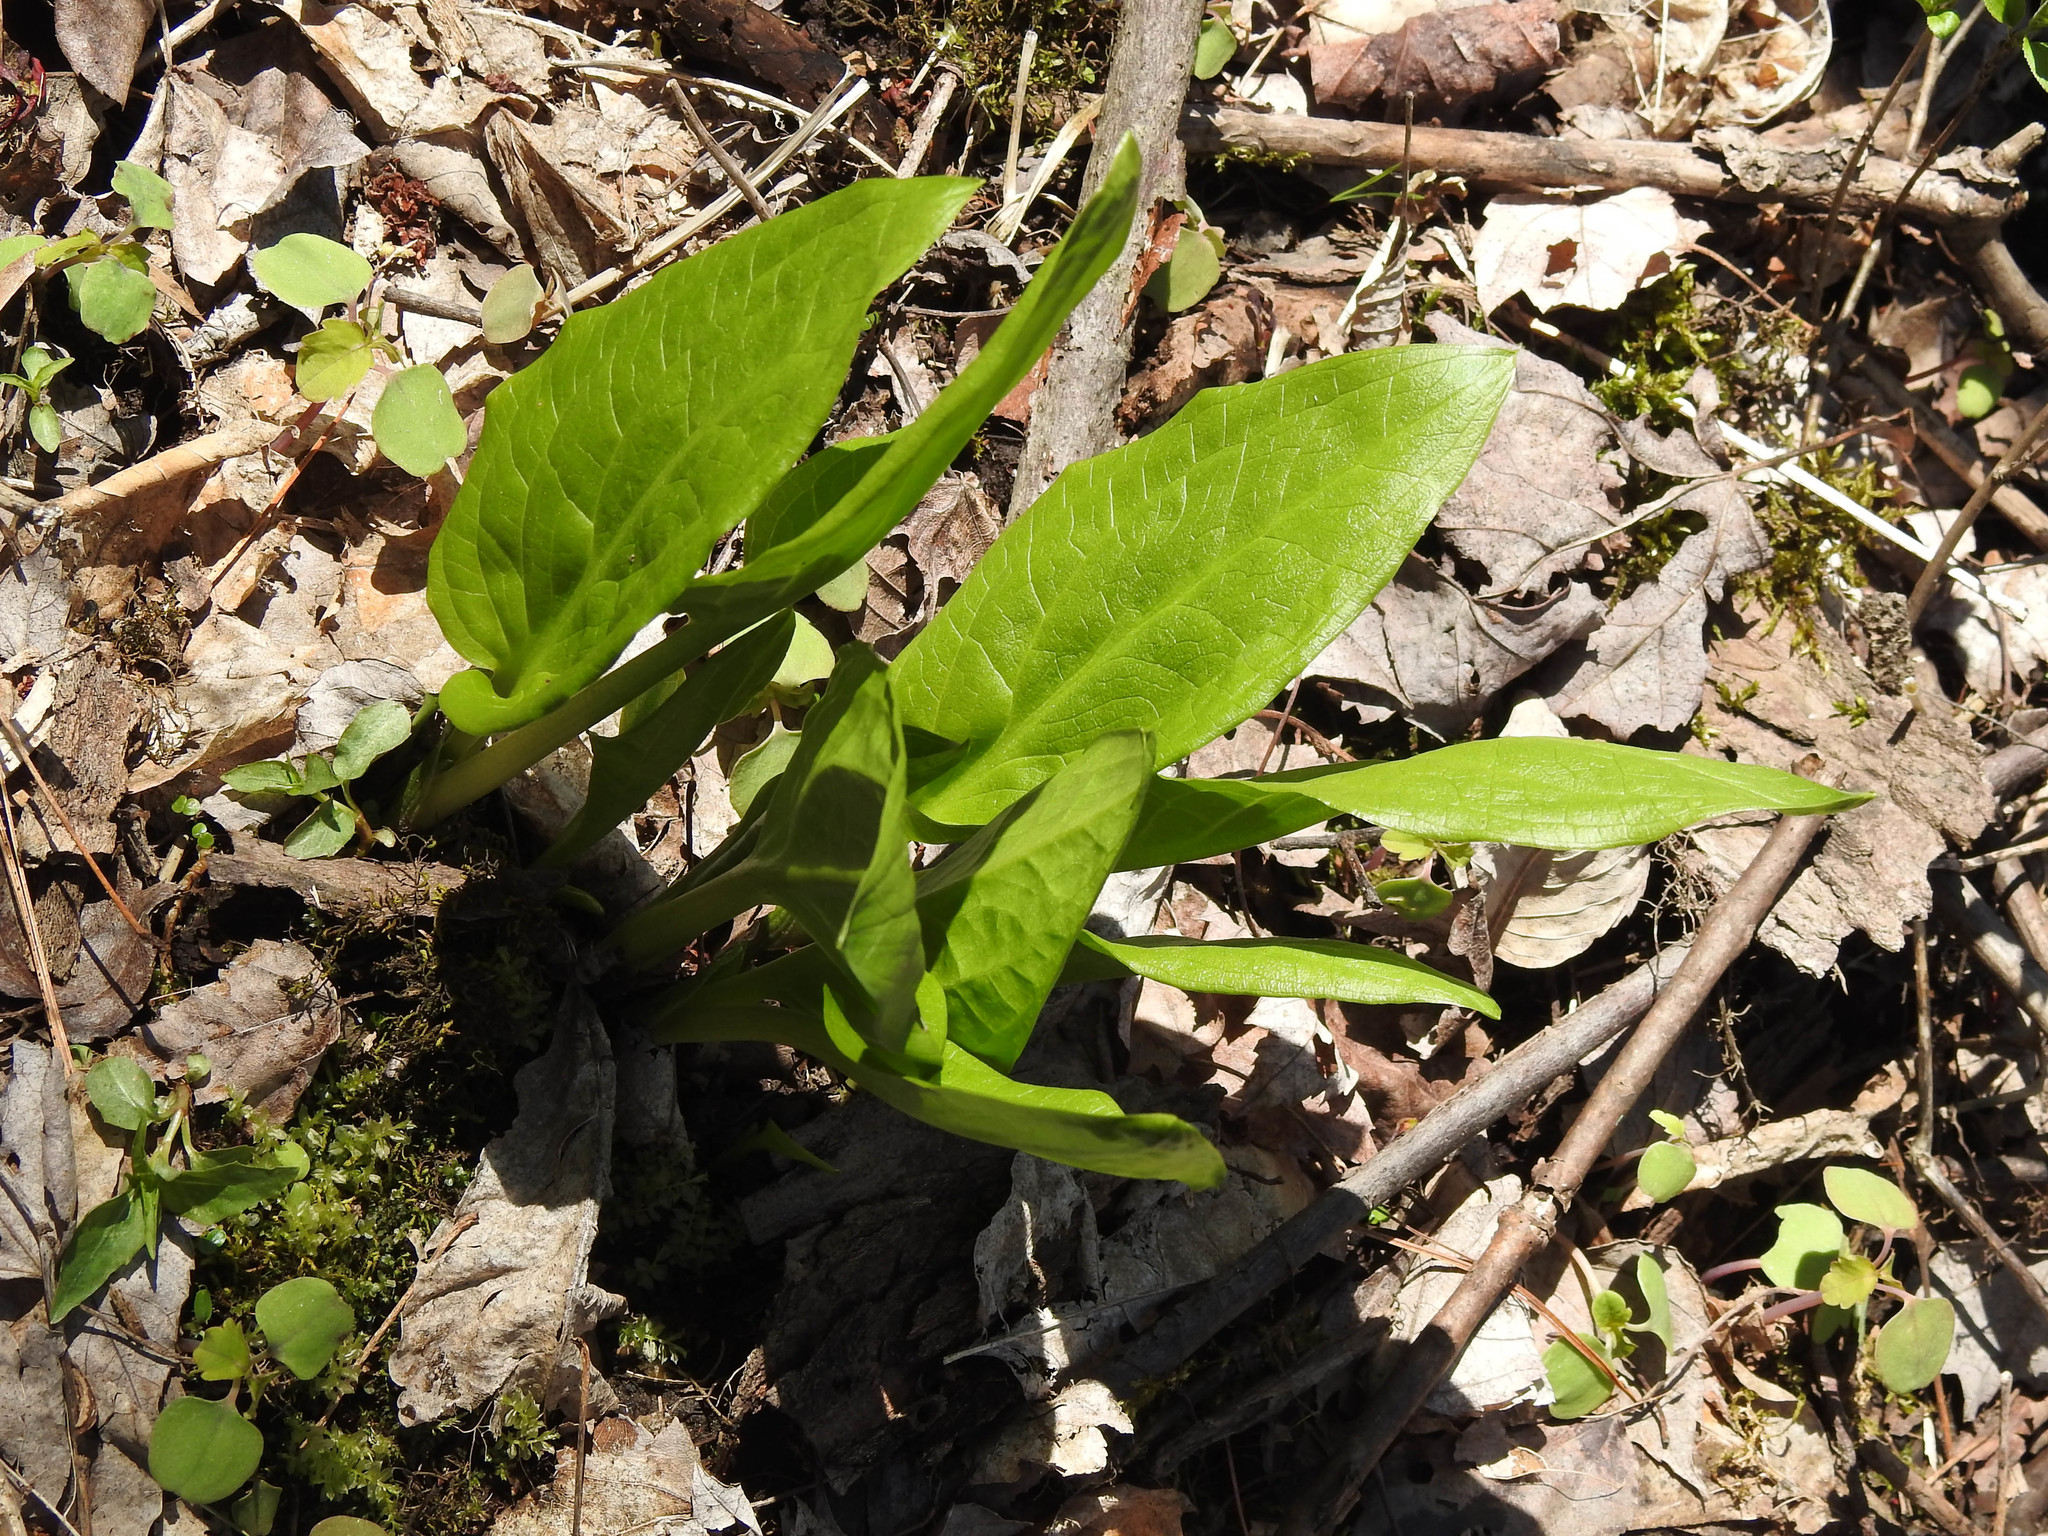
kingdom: Plantae
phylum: Tracheophyta
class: Liliopsida
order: Alismatales
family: Araceae
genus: Symplocarpus
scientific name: Symplocarpus foetidus
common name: Eastern skunk cabbage
